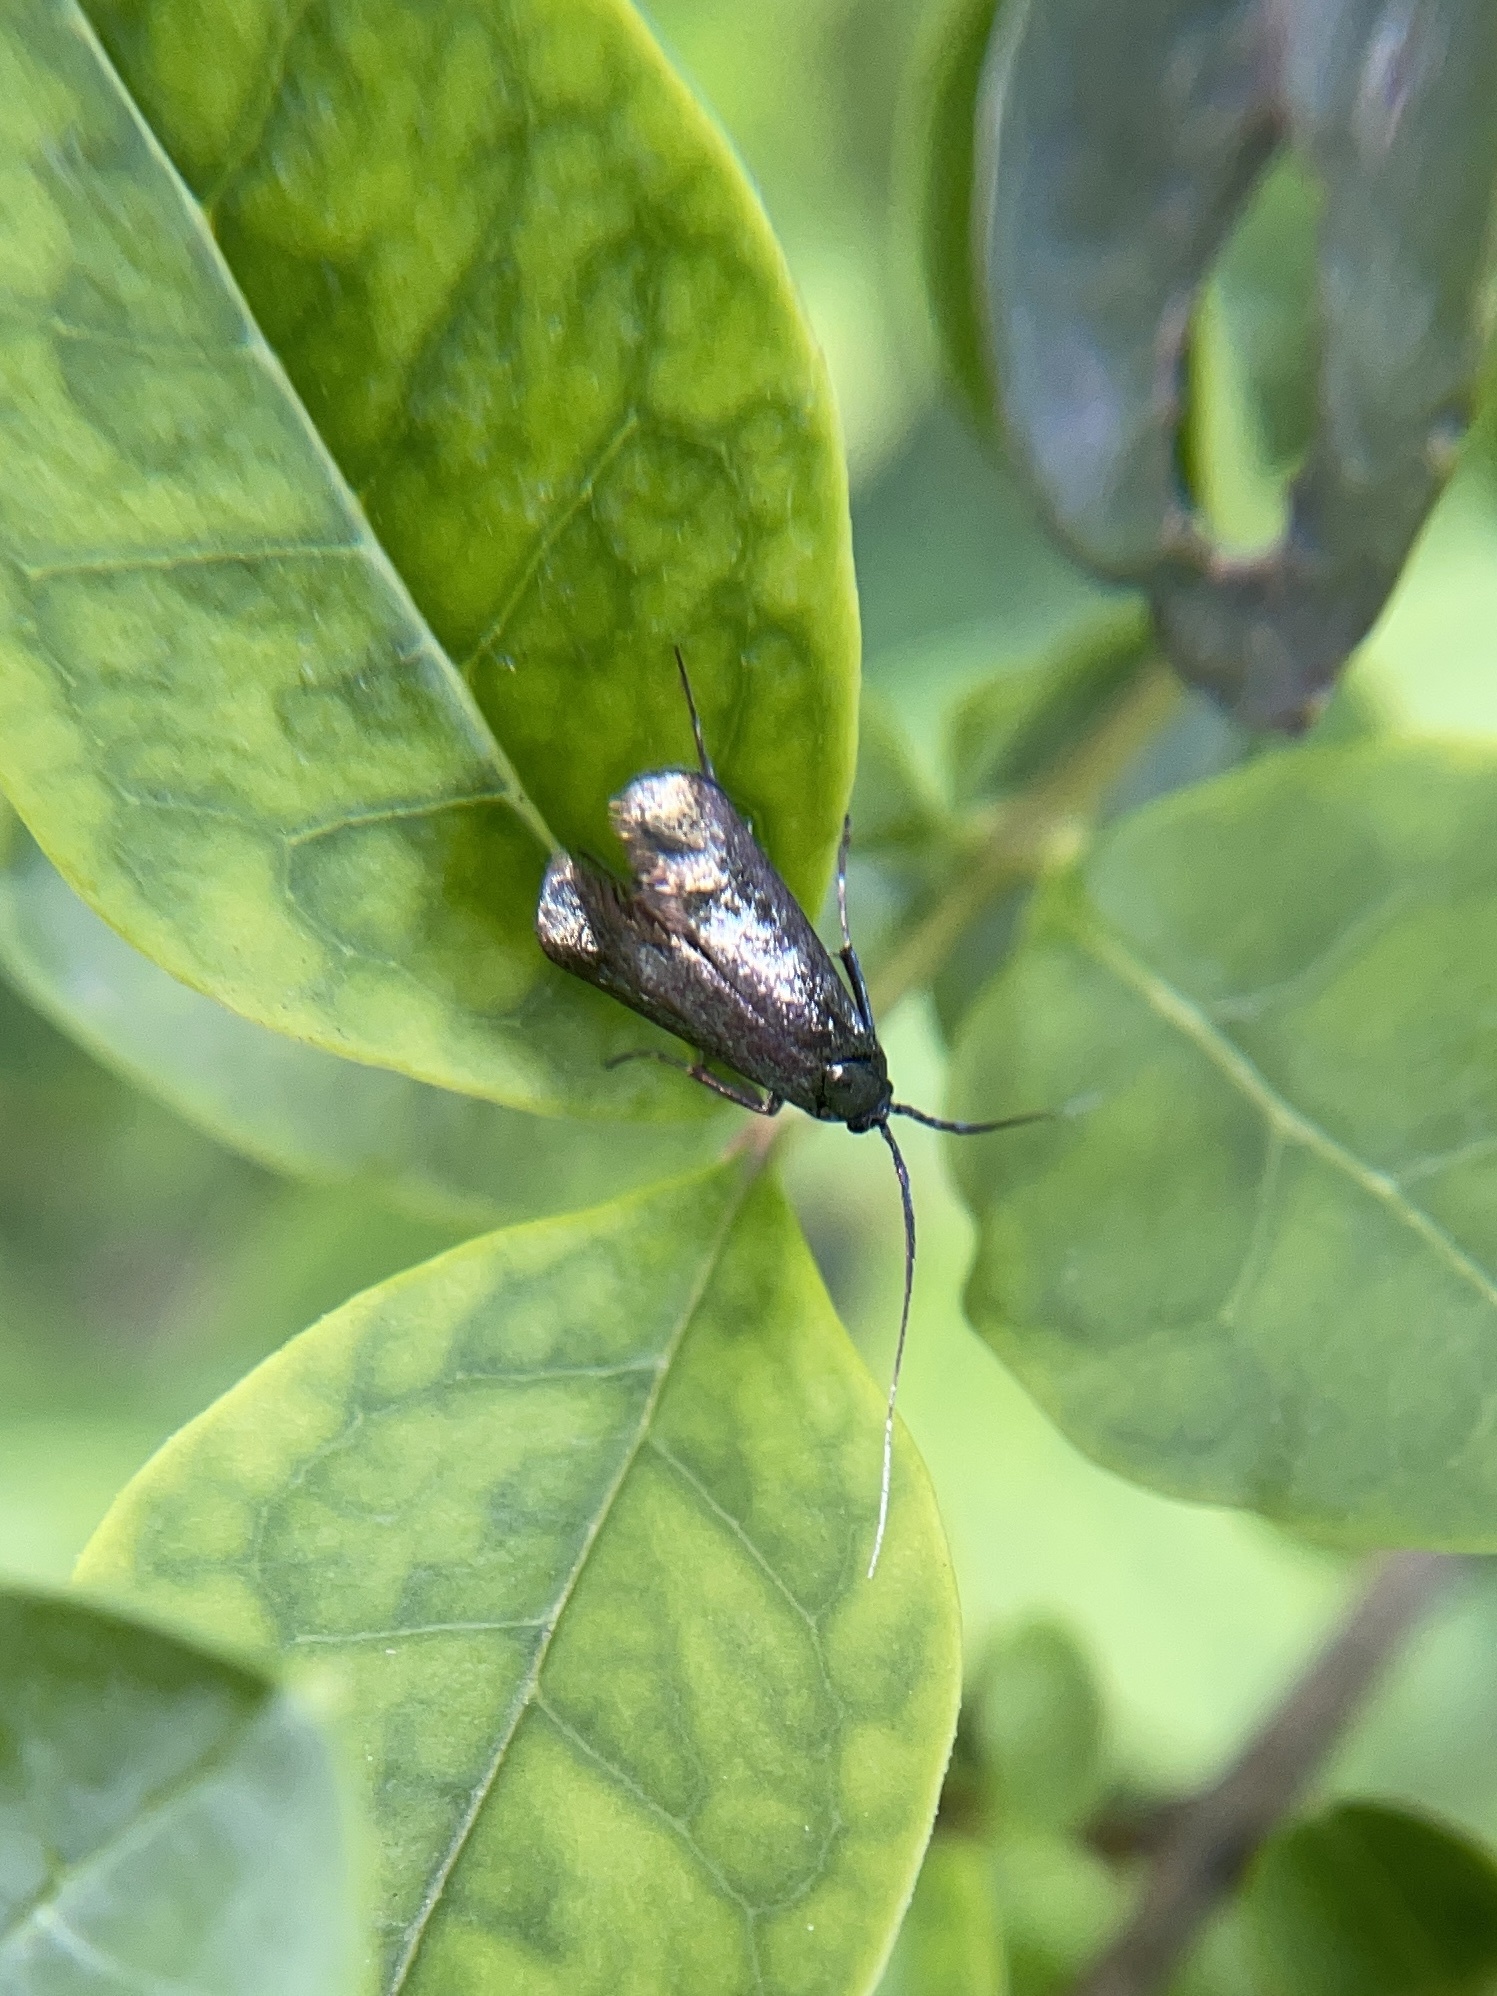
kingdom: Animalia
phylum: Arthropoda
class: Insecta
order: Lepidoptera
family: Adelidae
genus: Adela
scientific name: Adela viridella
